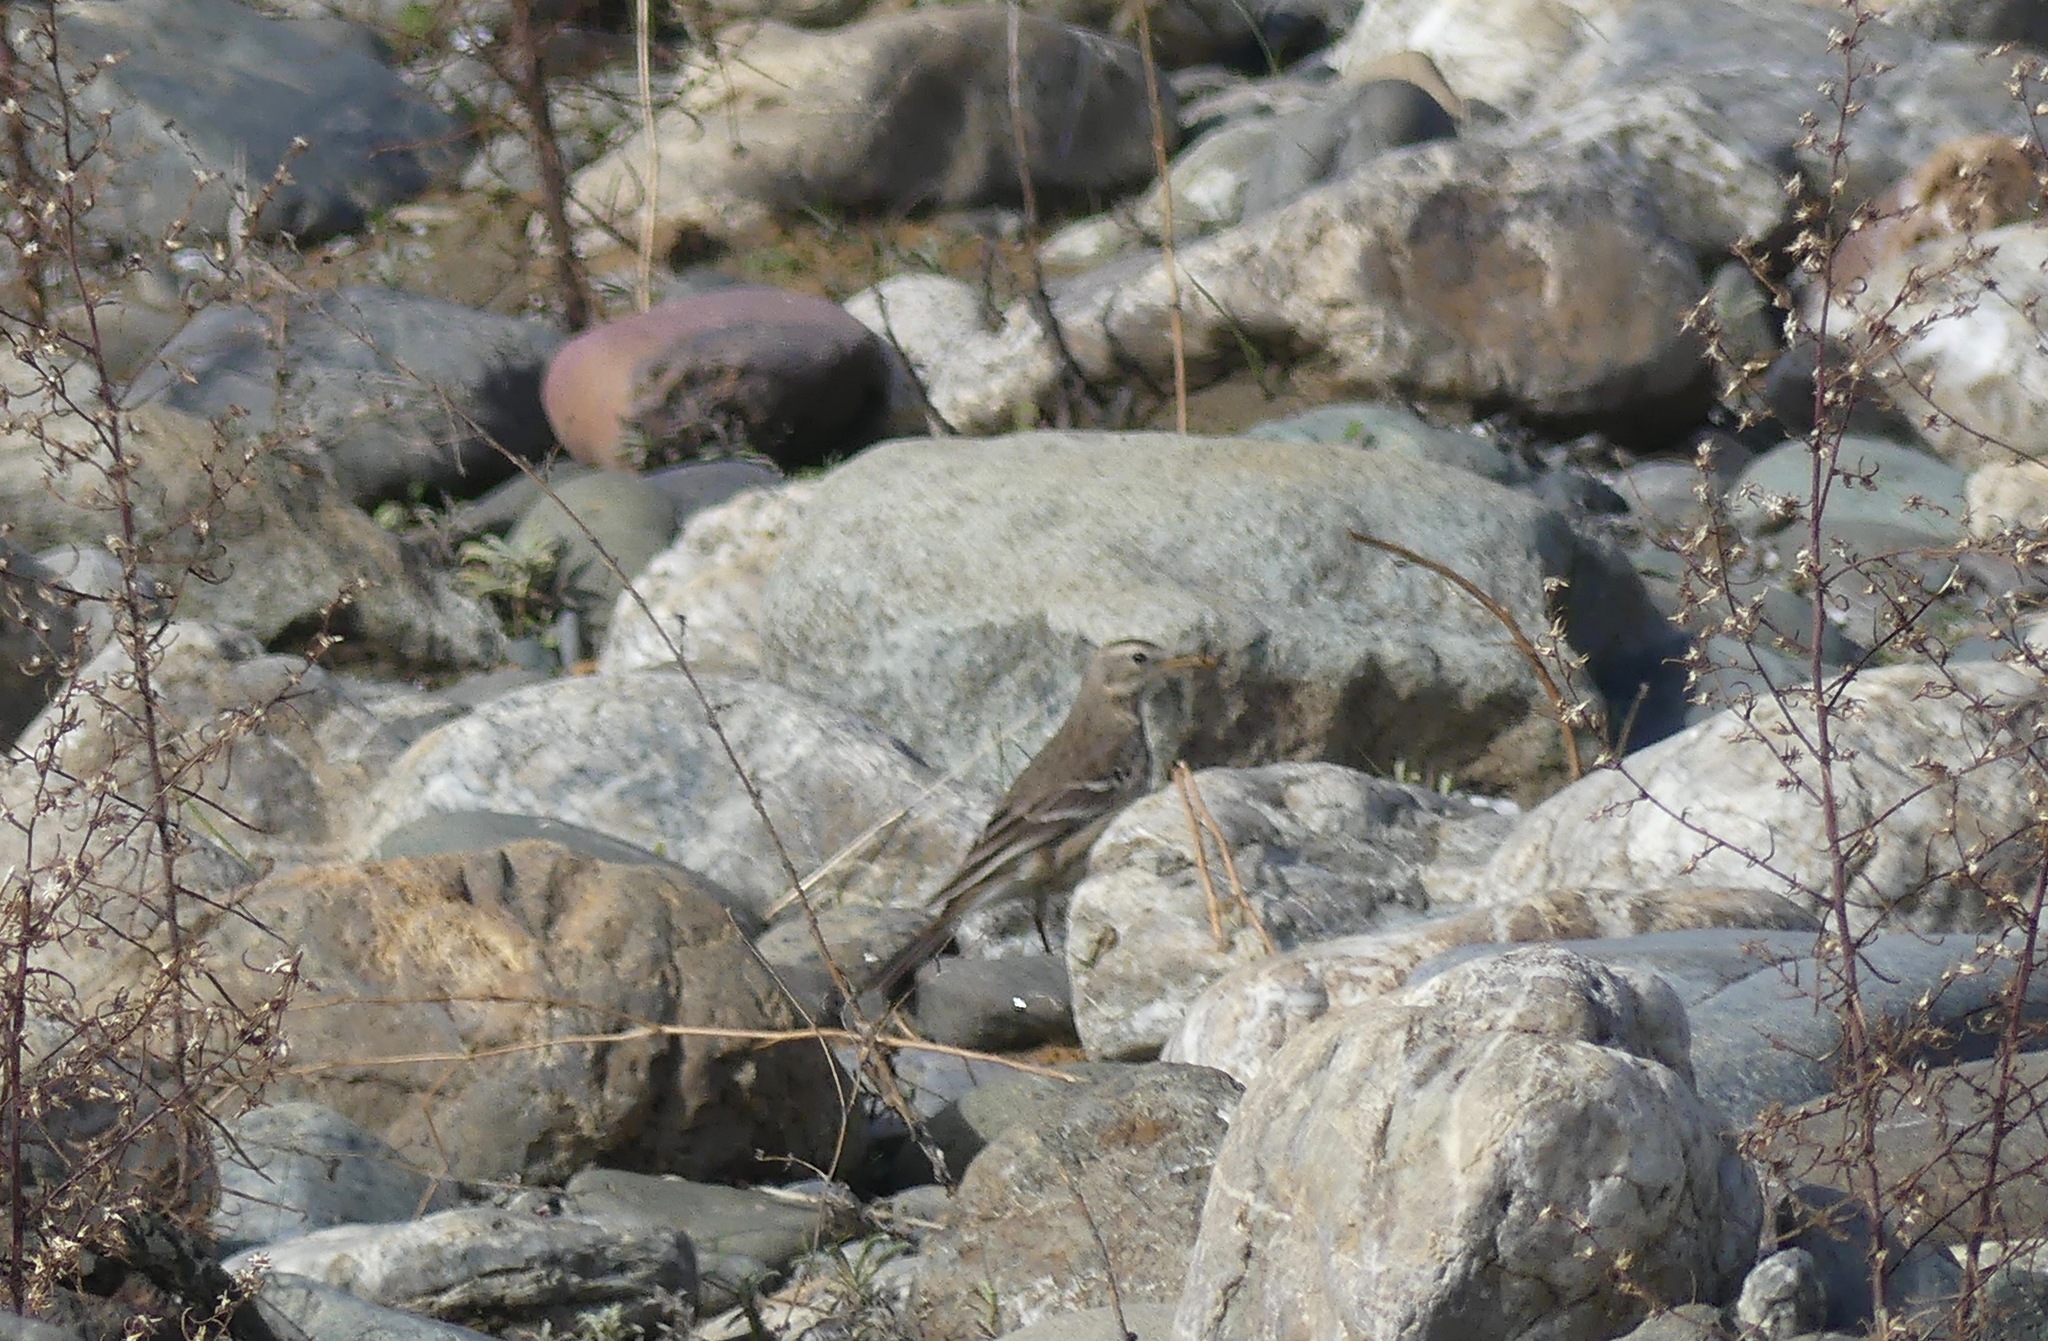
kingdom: Animalia
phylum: Chordata
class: Aves
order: Passeriformes
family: Motacillidae
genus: Anthus
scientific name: Anthus rubescens
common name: Buff-bellied pipit
